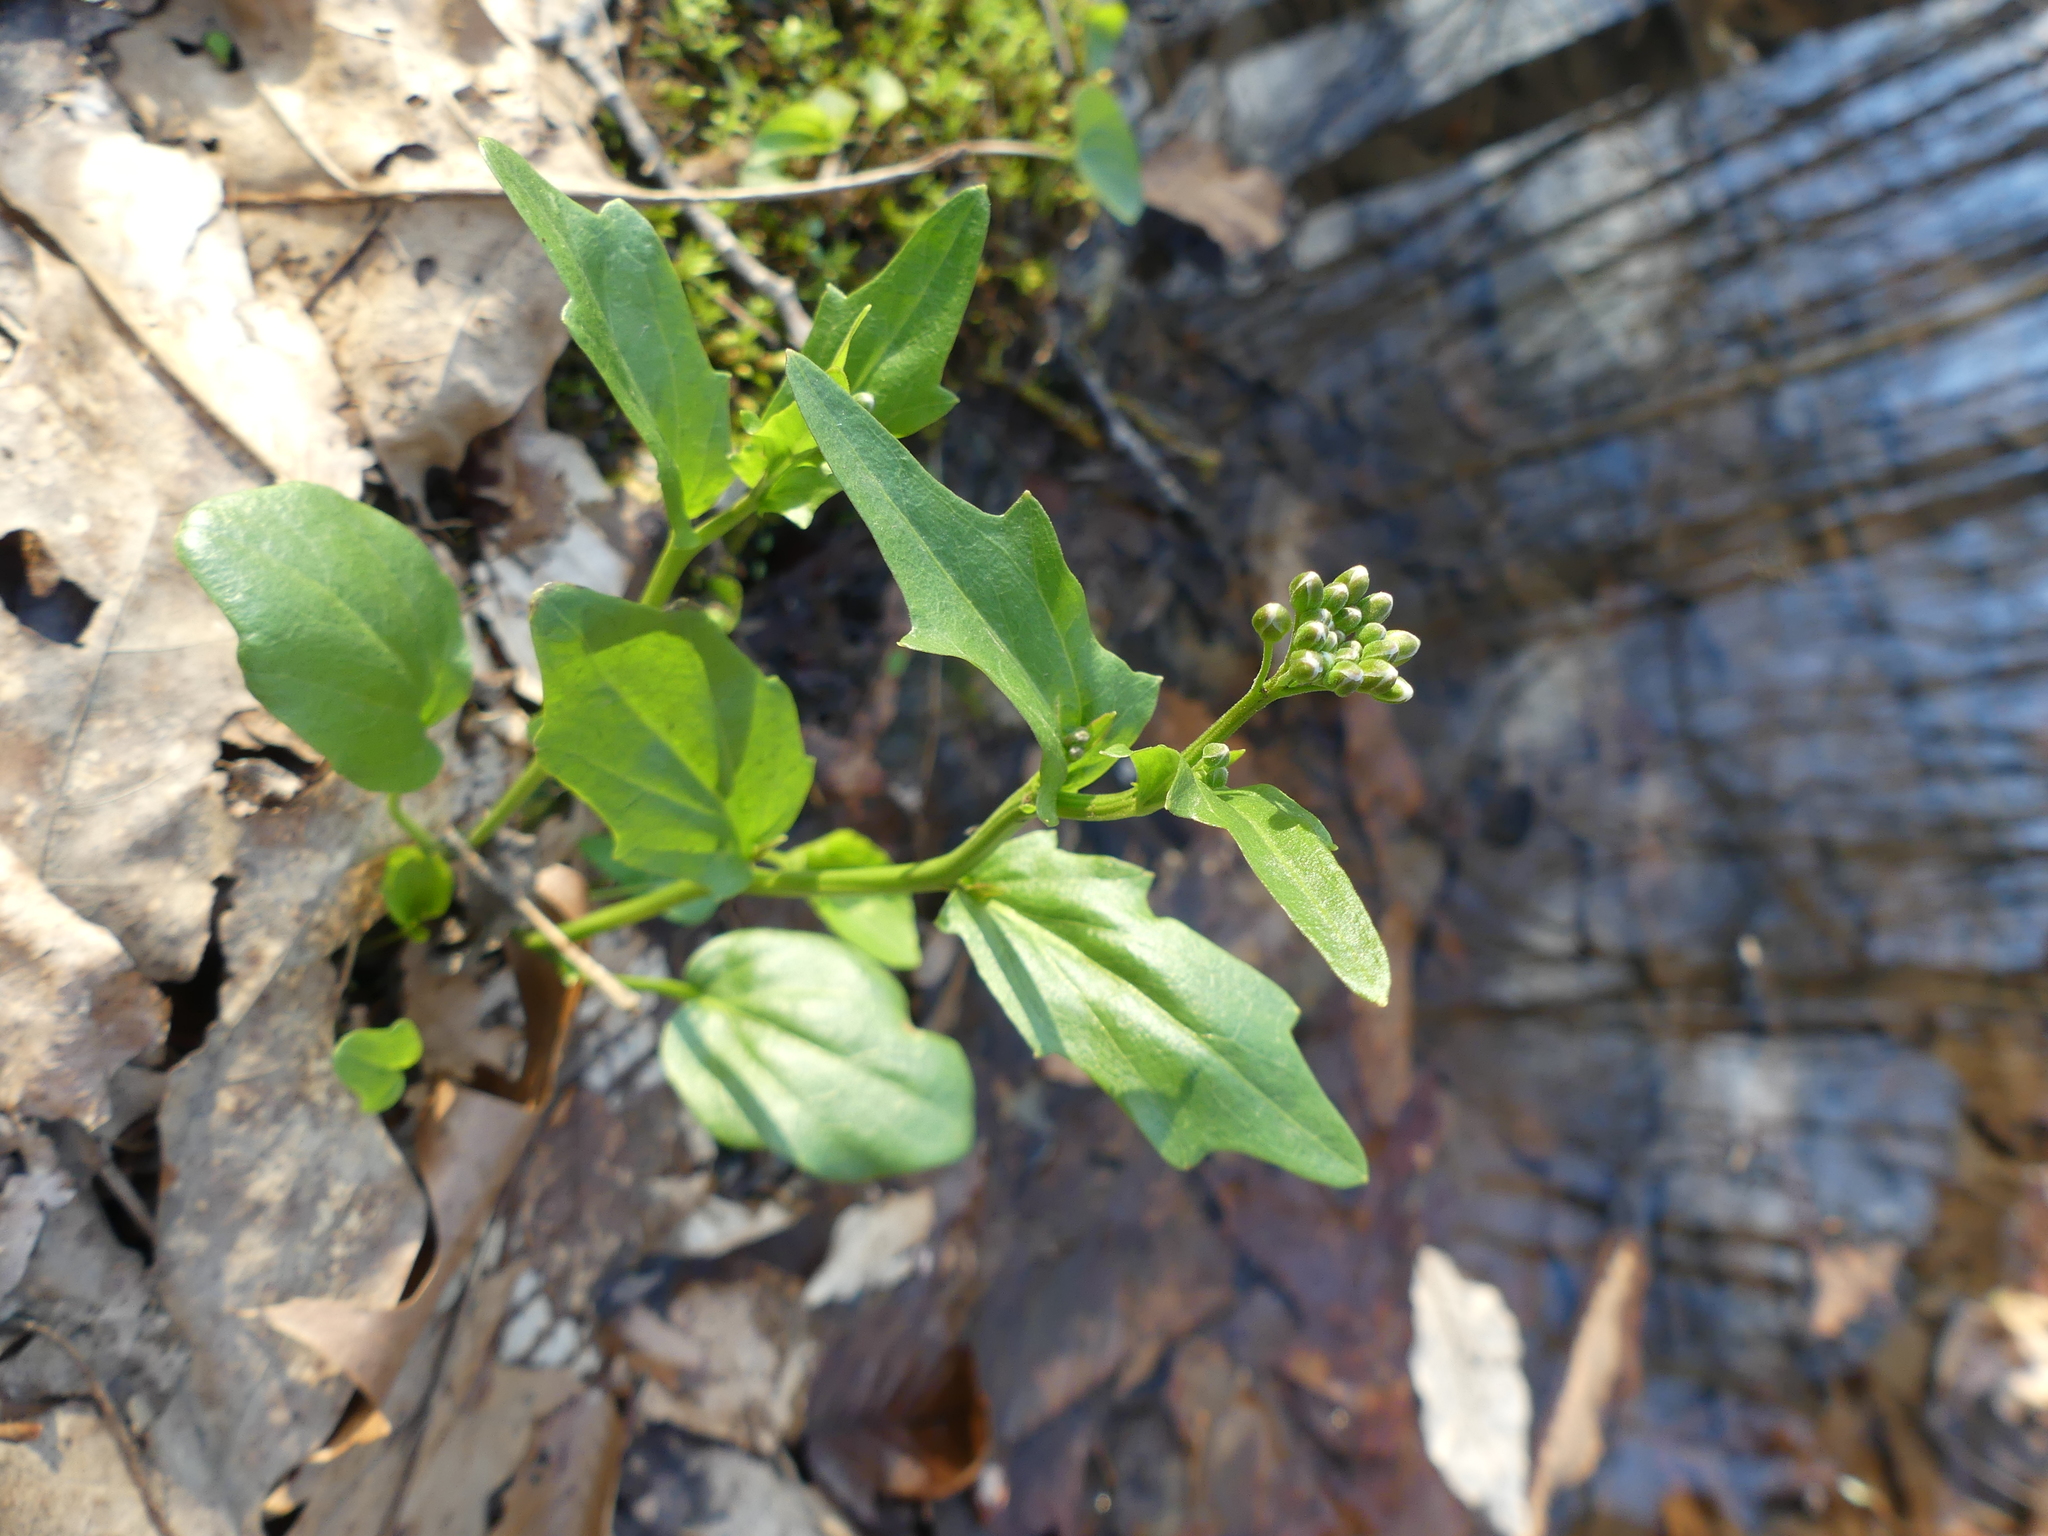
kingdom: Plantae
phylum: Tracheophyta
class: Magnoliopsida
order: Brassicales
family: Brassicaceae
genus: Cardamine
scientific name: Cardamine bulbosa
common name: Spring cress
